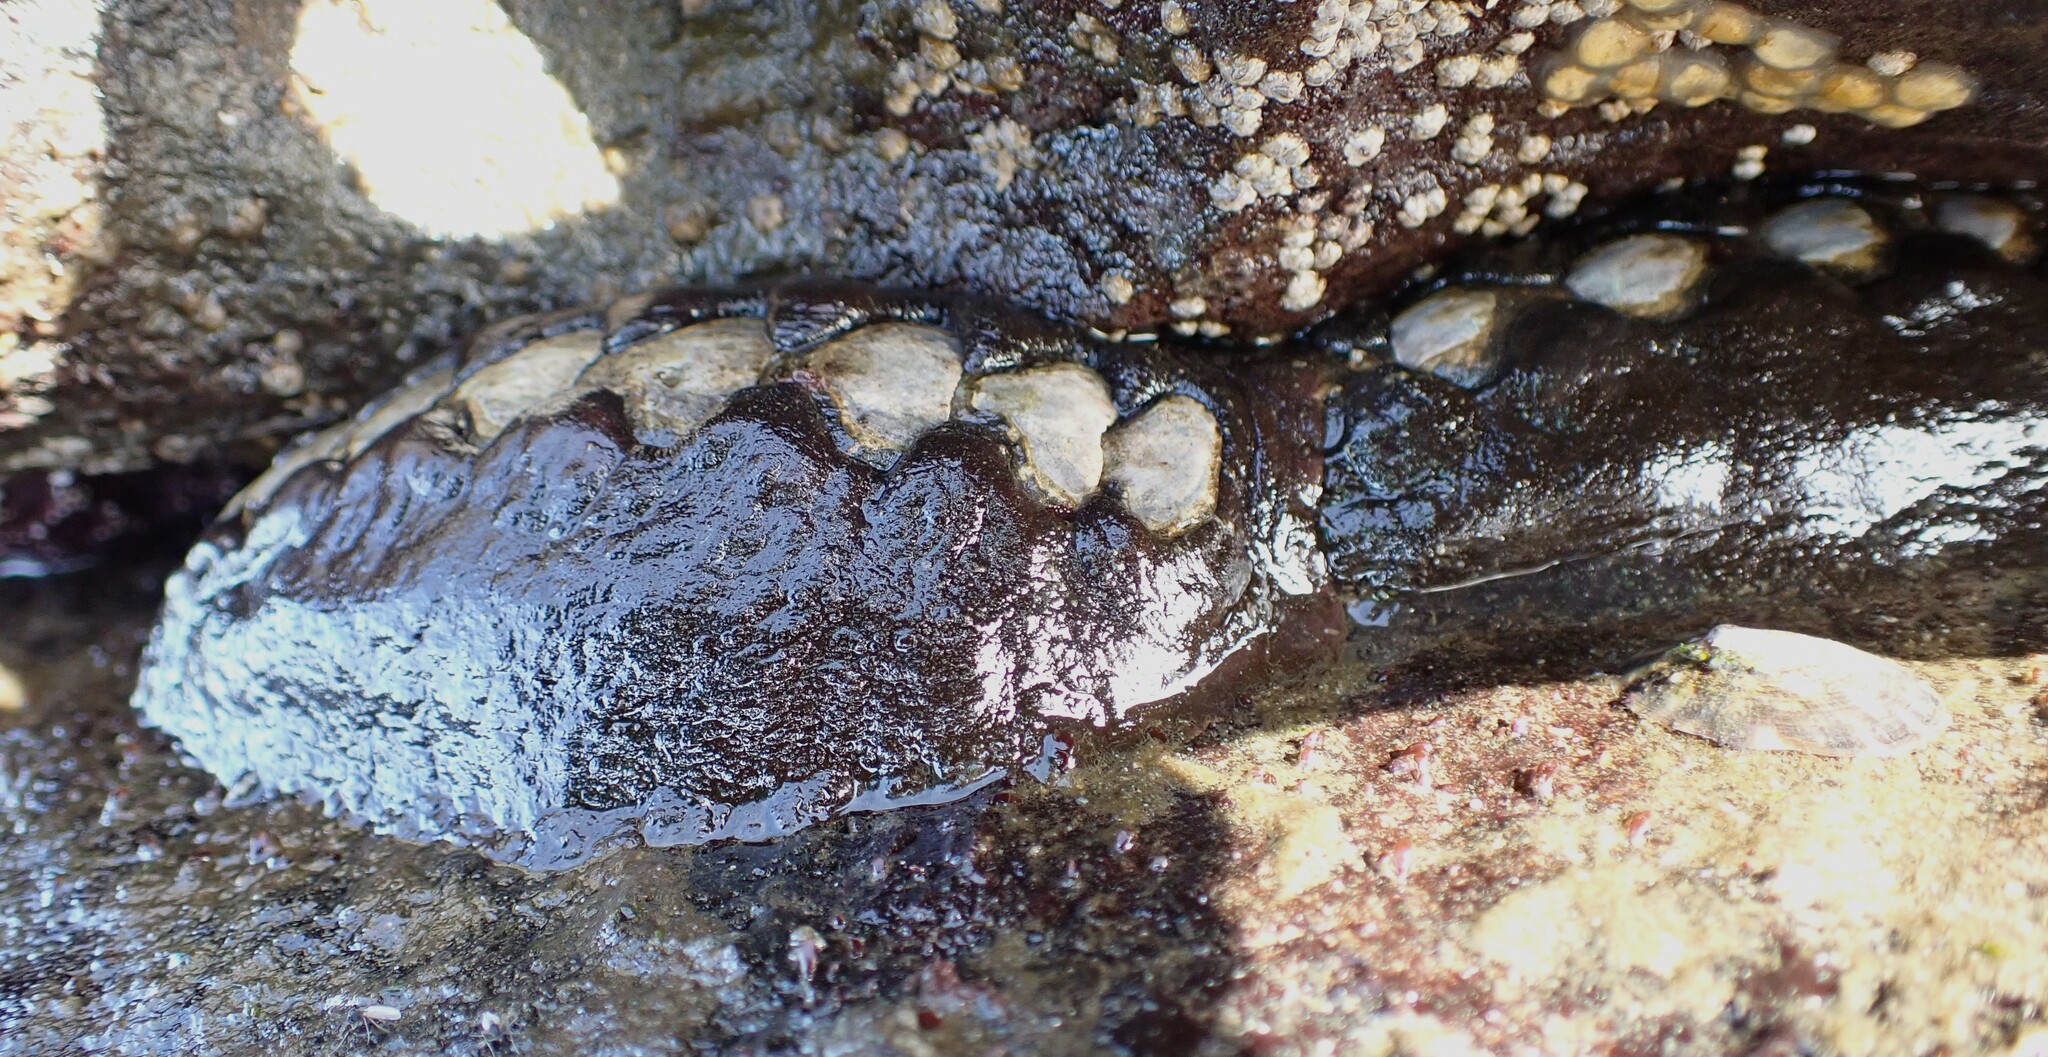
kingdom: Animalia
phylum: Mollusca
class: Polyplacophora
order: Chitonida
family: Mopaliidae
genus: Katharina
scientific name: Katharina tunicata
